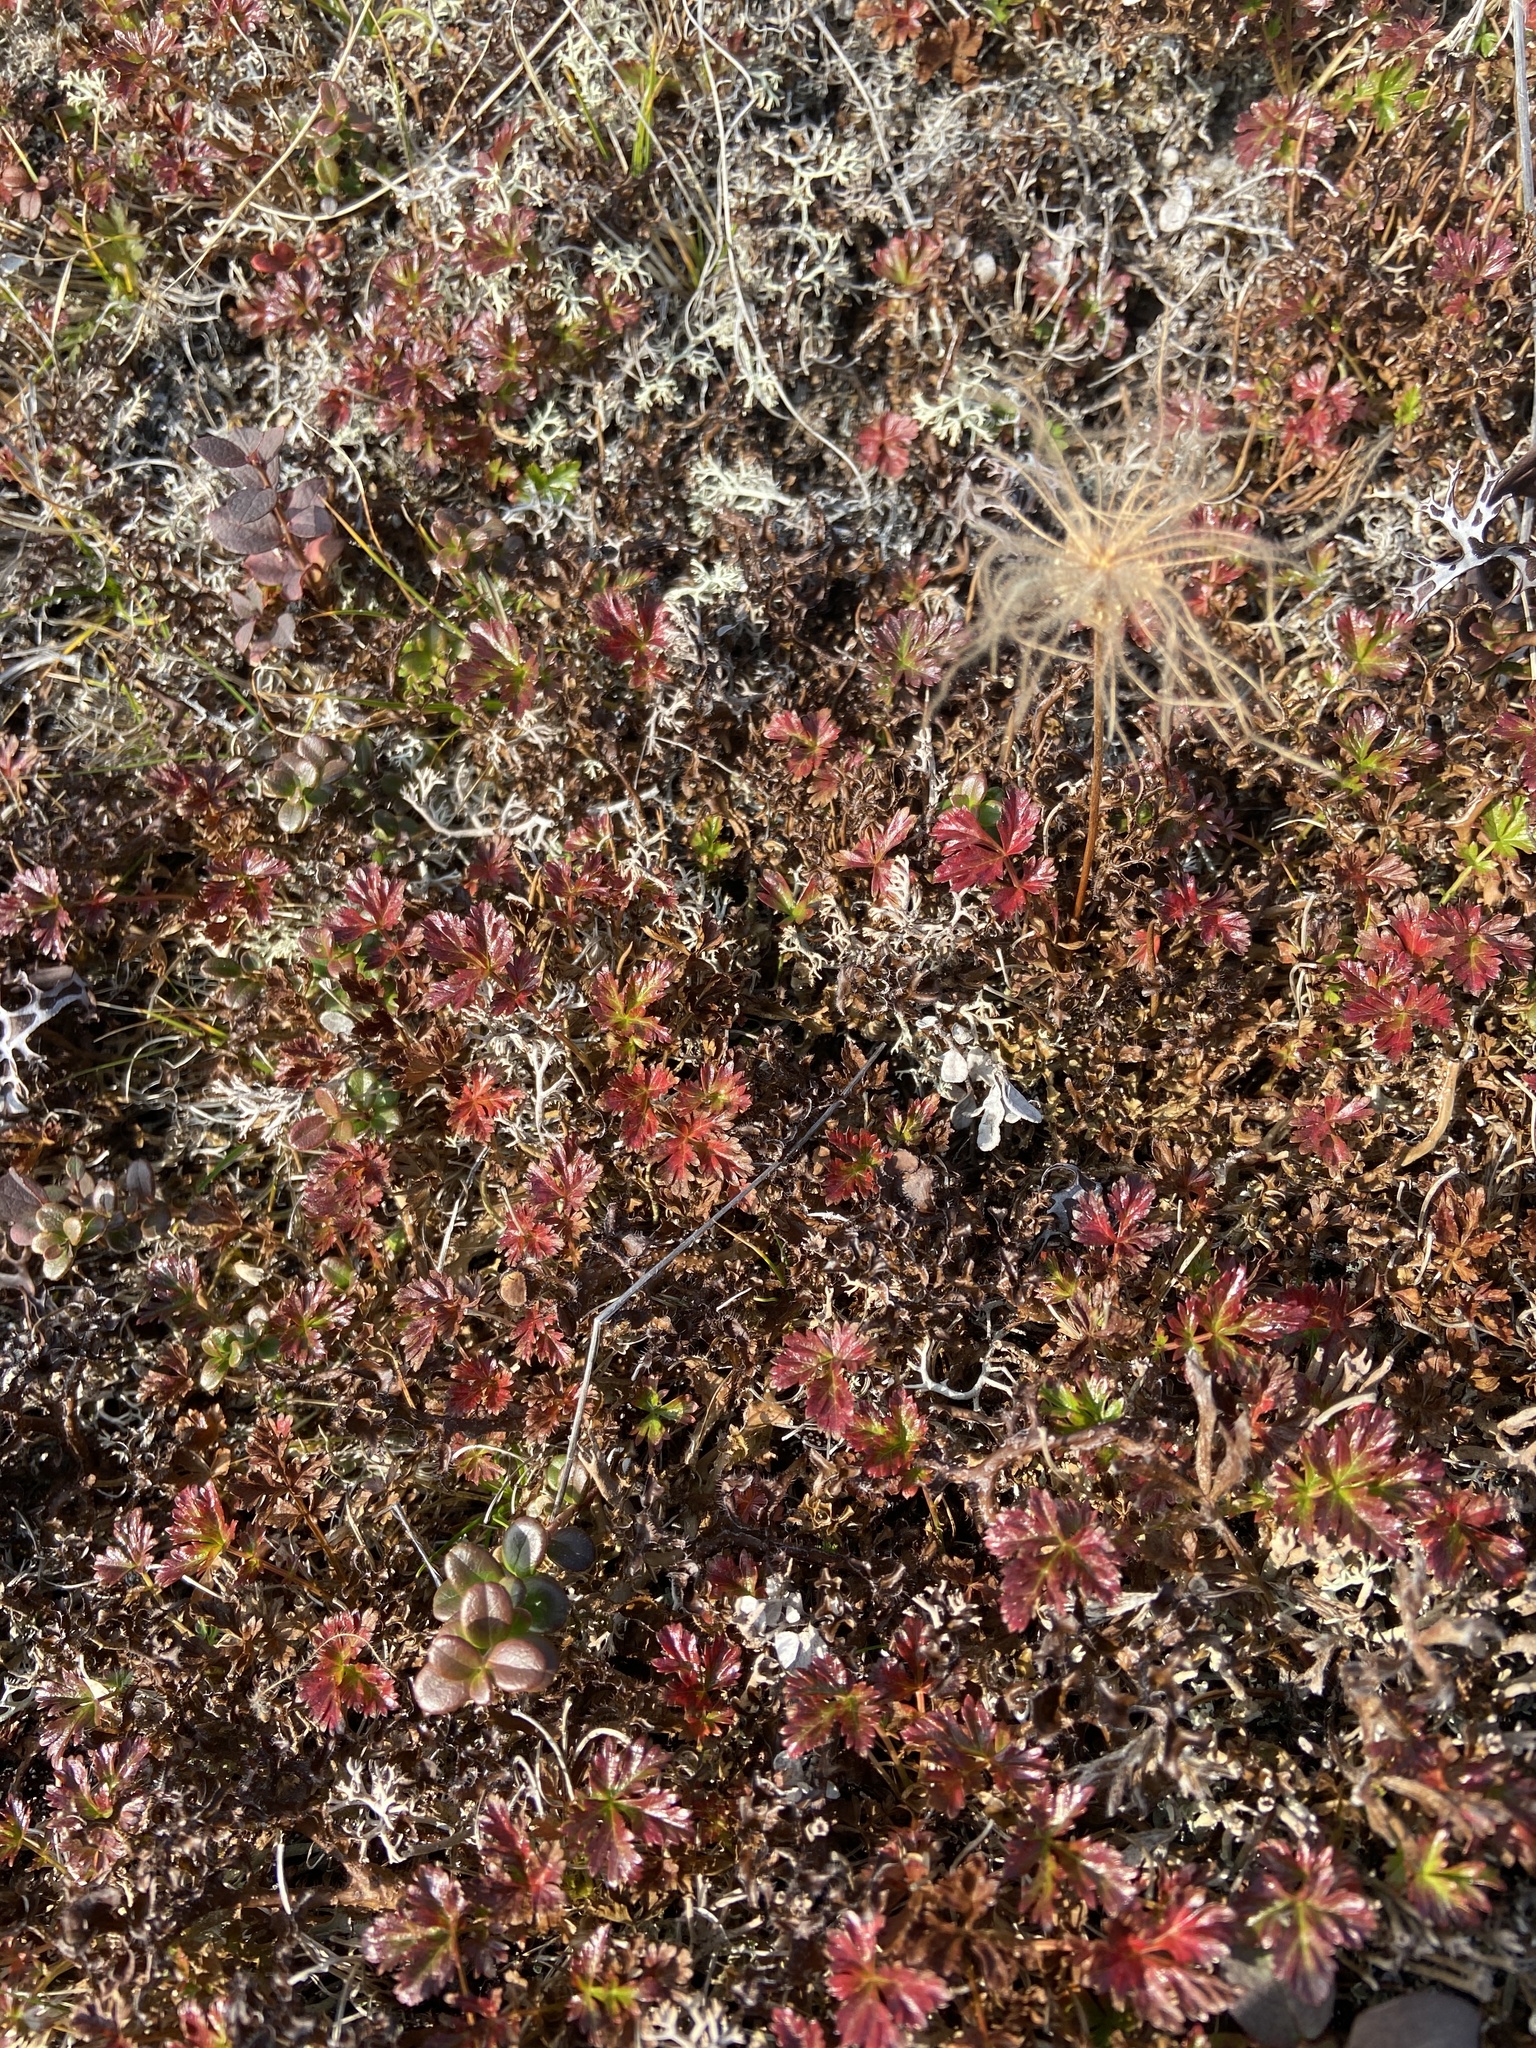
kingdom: Plantae
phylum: Tracheophyta
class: Magnoliopsida
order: Rosales
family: Rosaceae
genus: Sieversia
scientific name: Sieversia pusilla
